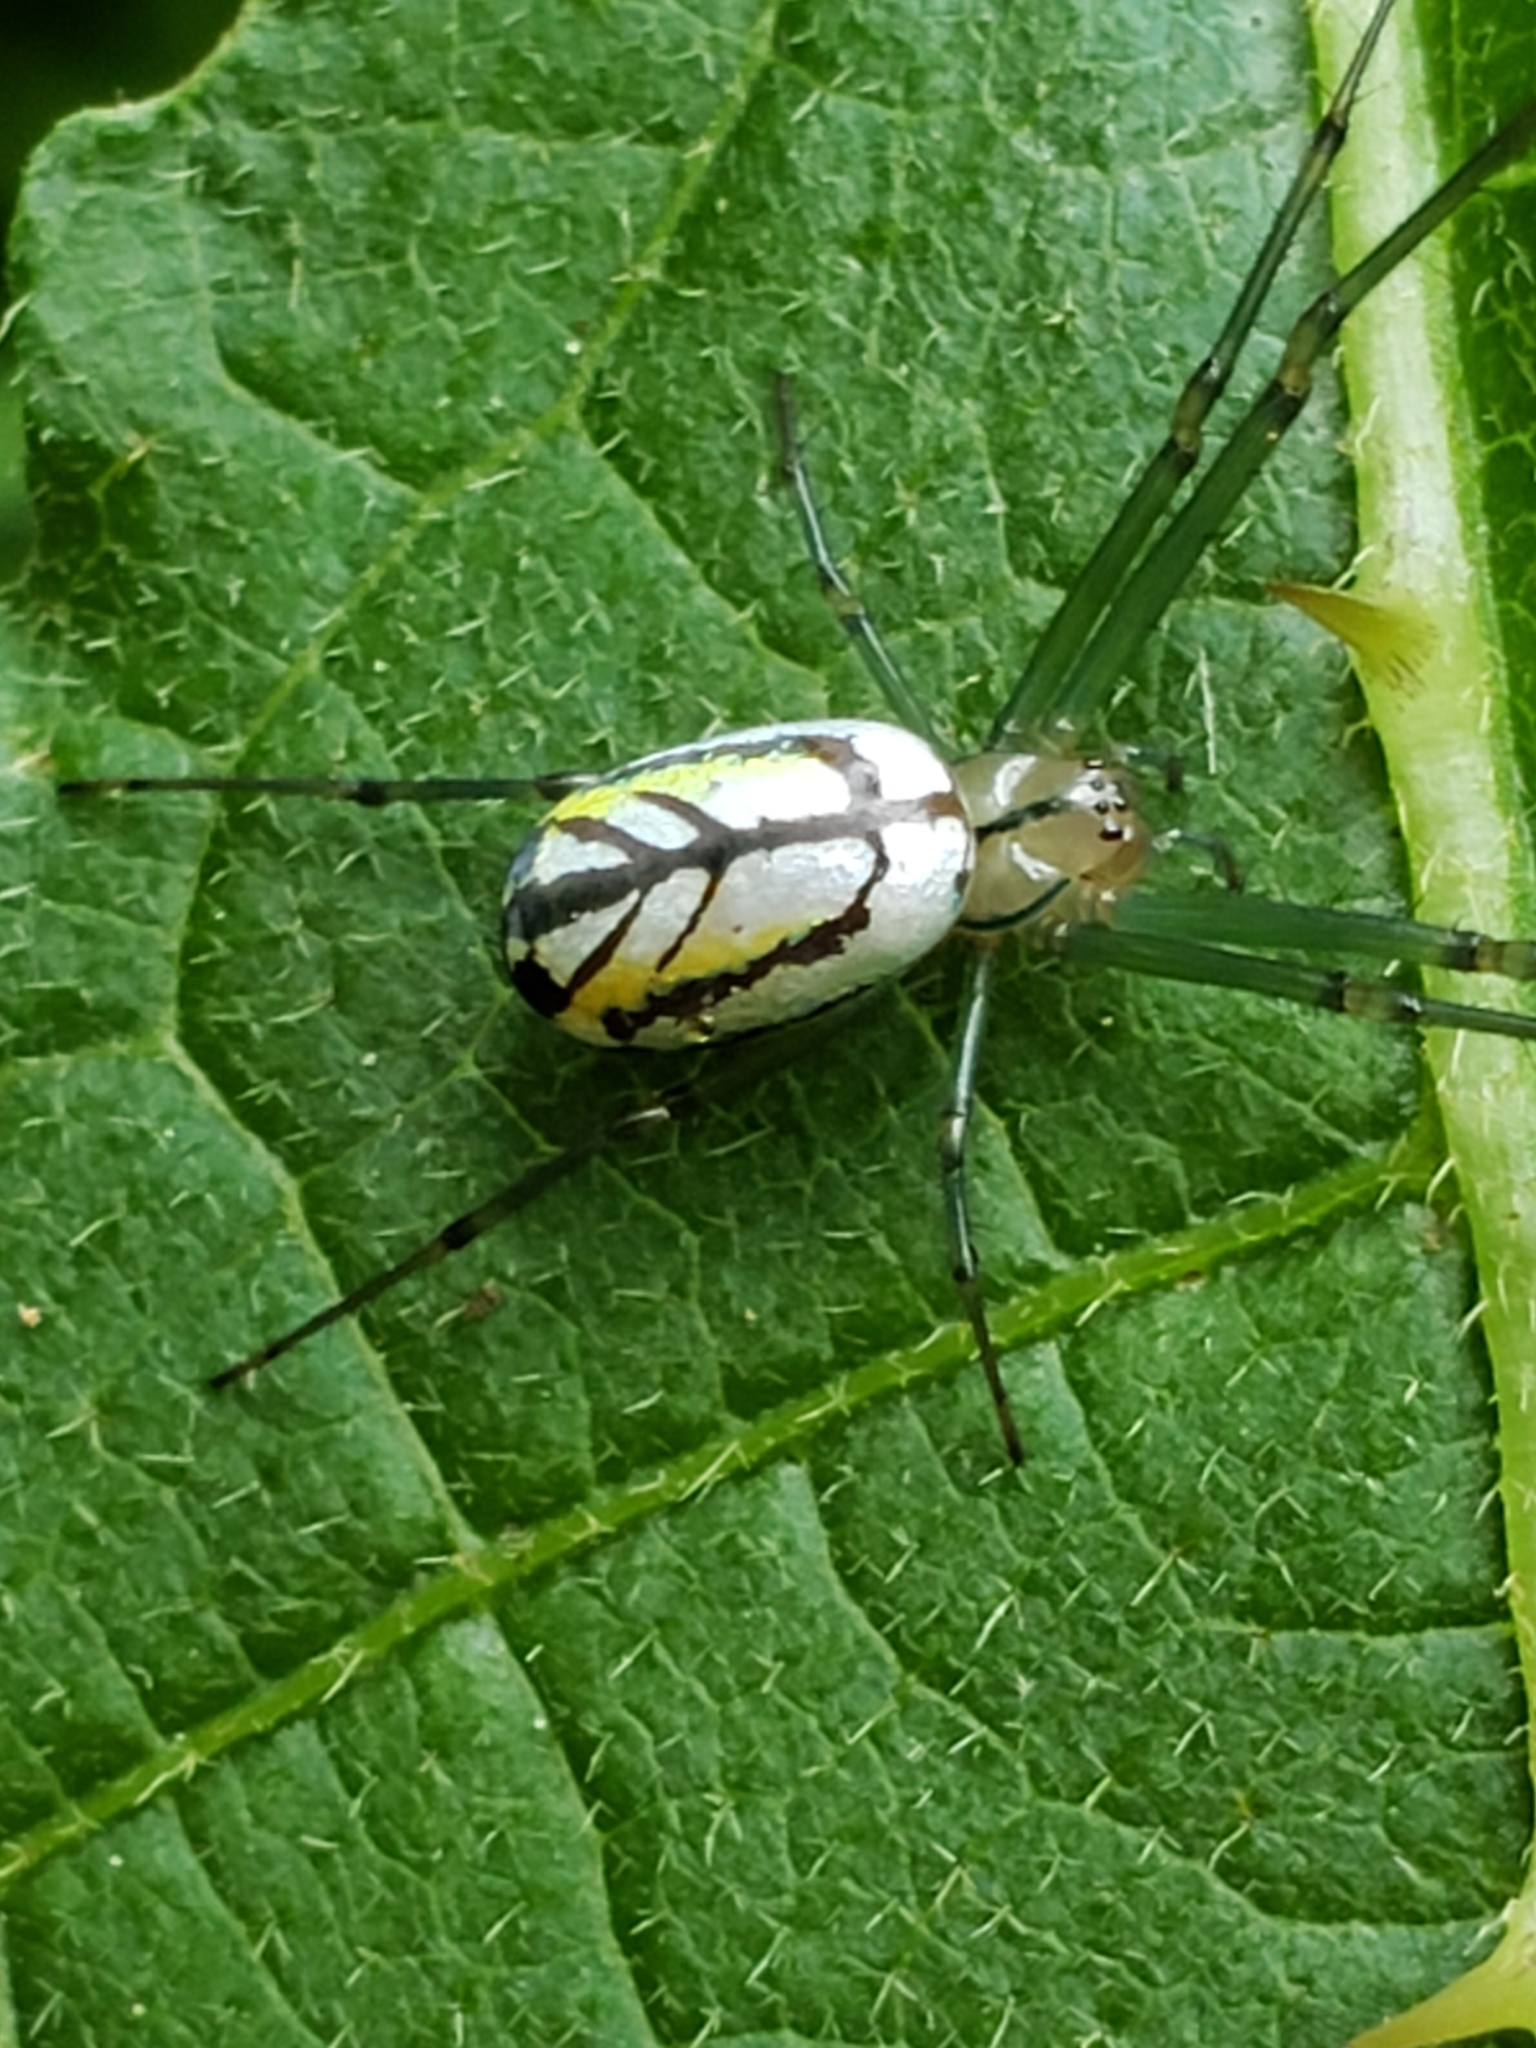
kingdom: Animalia
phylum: Arthropoda
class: Arachnida
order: Araneae
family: Tetragnathidae
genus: Leucauge
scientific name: Leucauge venusta
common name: Longjawed orb weavers
